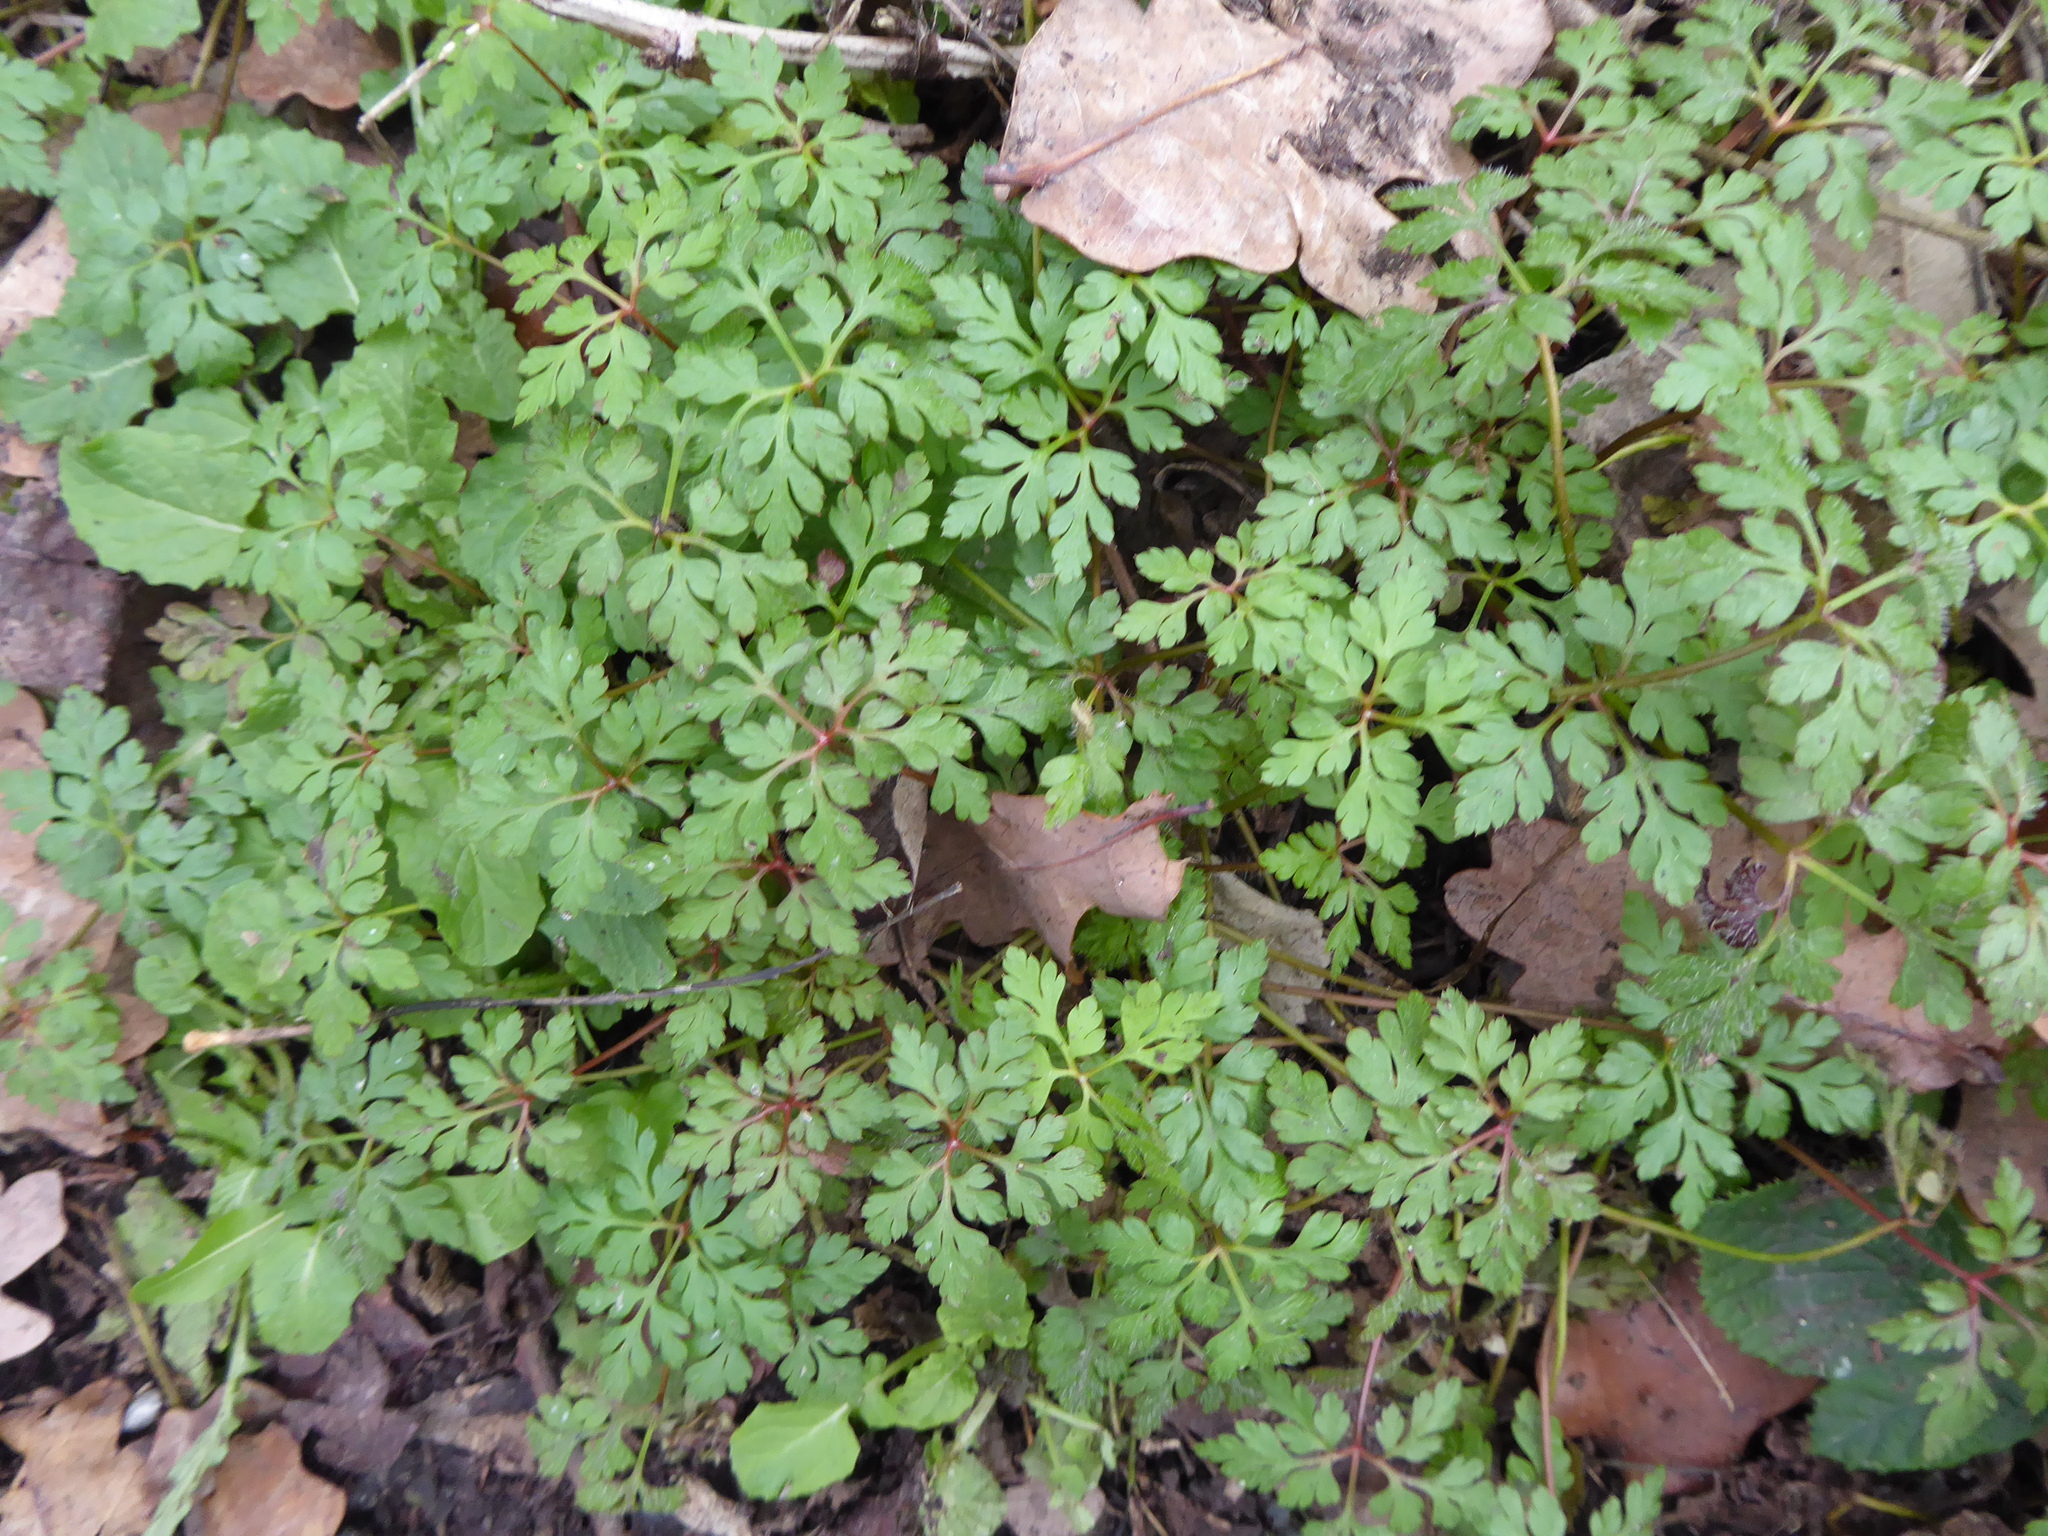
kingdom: Plantae
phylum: Tracheophyta
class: Magnoliopsida
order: Geraniales
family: Geraniaceae
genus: Geranium
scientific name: Geranium robertianum
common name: Herb-robert
